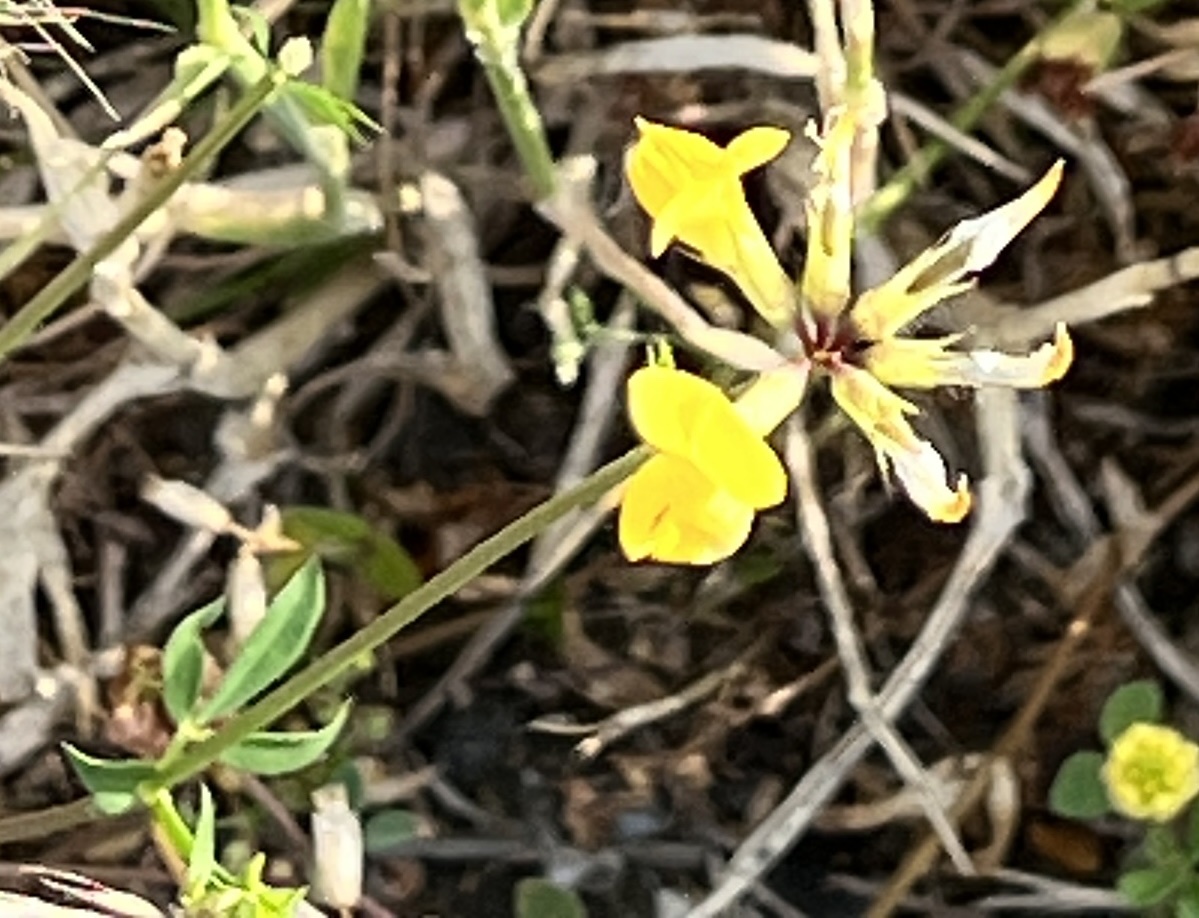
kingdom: Plantae
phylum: Tracheophyta
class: Magnoliopsida
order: Fabales
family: Fabaceae
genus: Lotus
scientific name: Lotus corniculatus
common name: Common bird's-foot-trefoil
